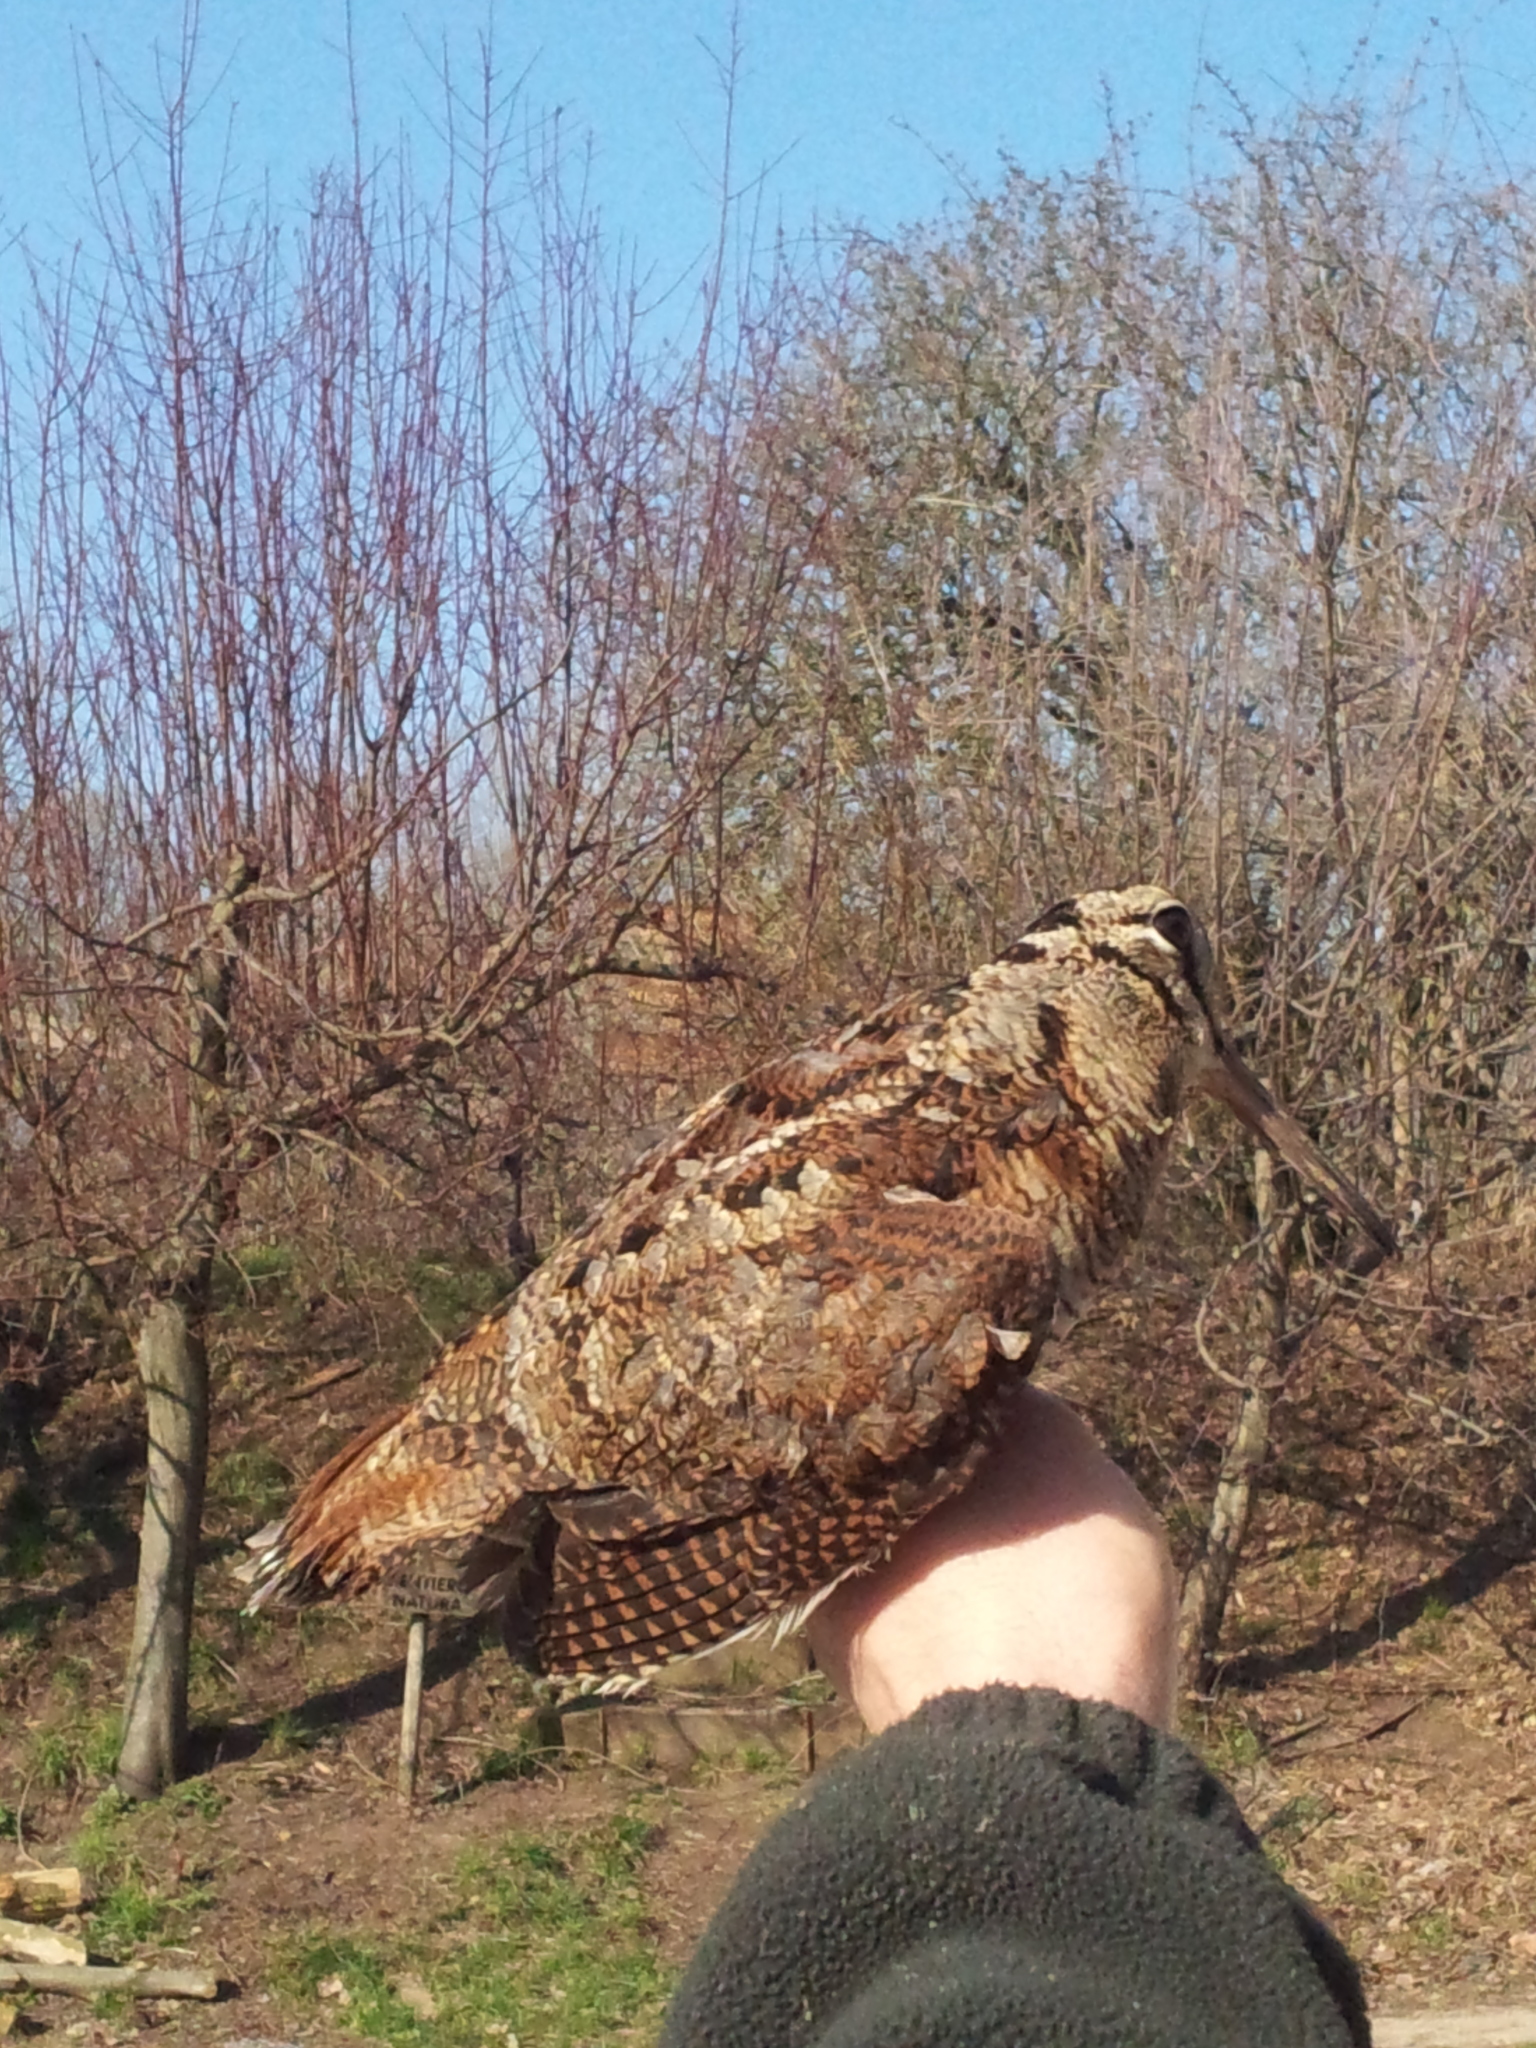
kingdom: Animalia
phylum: Chordata
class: Aves
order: Charadriiformes
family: Scolopacidae
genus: Scolopax
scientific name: Scolopax rusticola
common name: Eurasian woodcock
